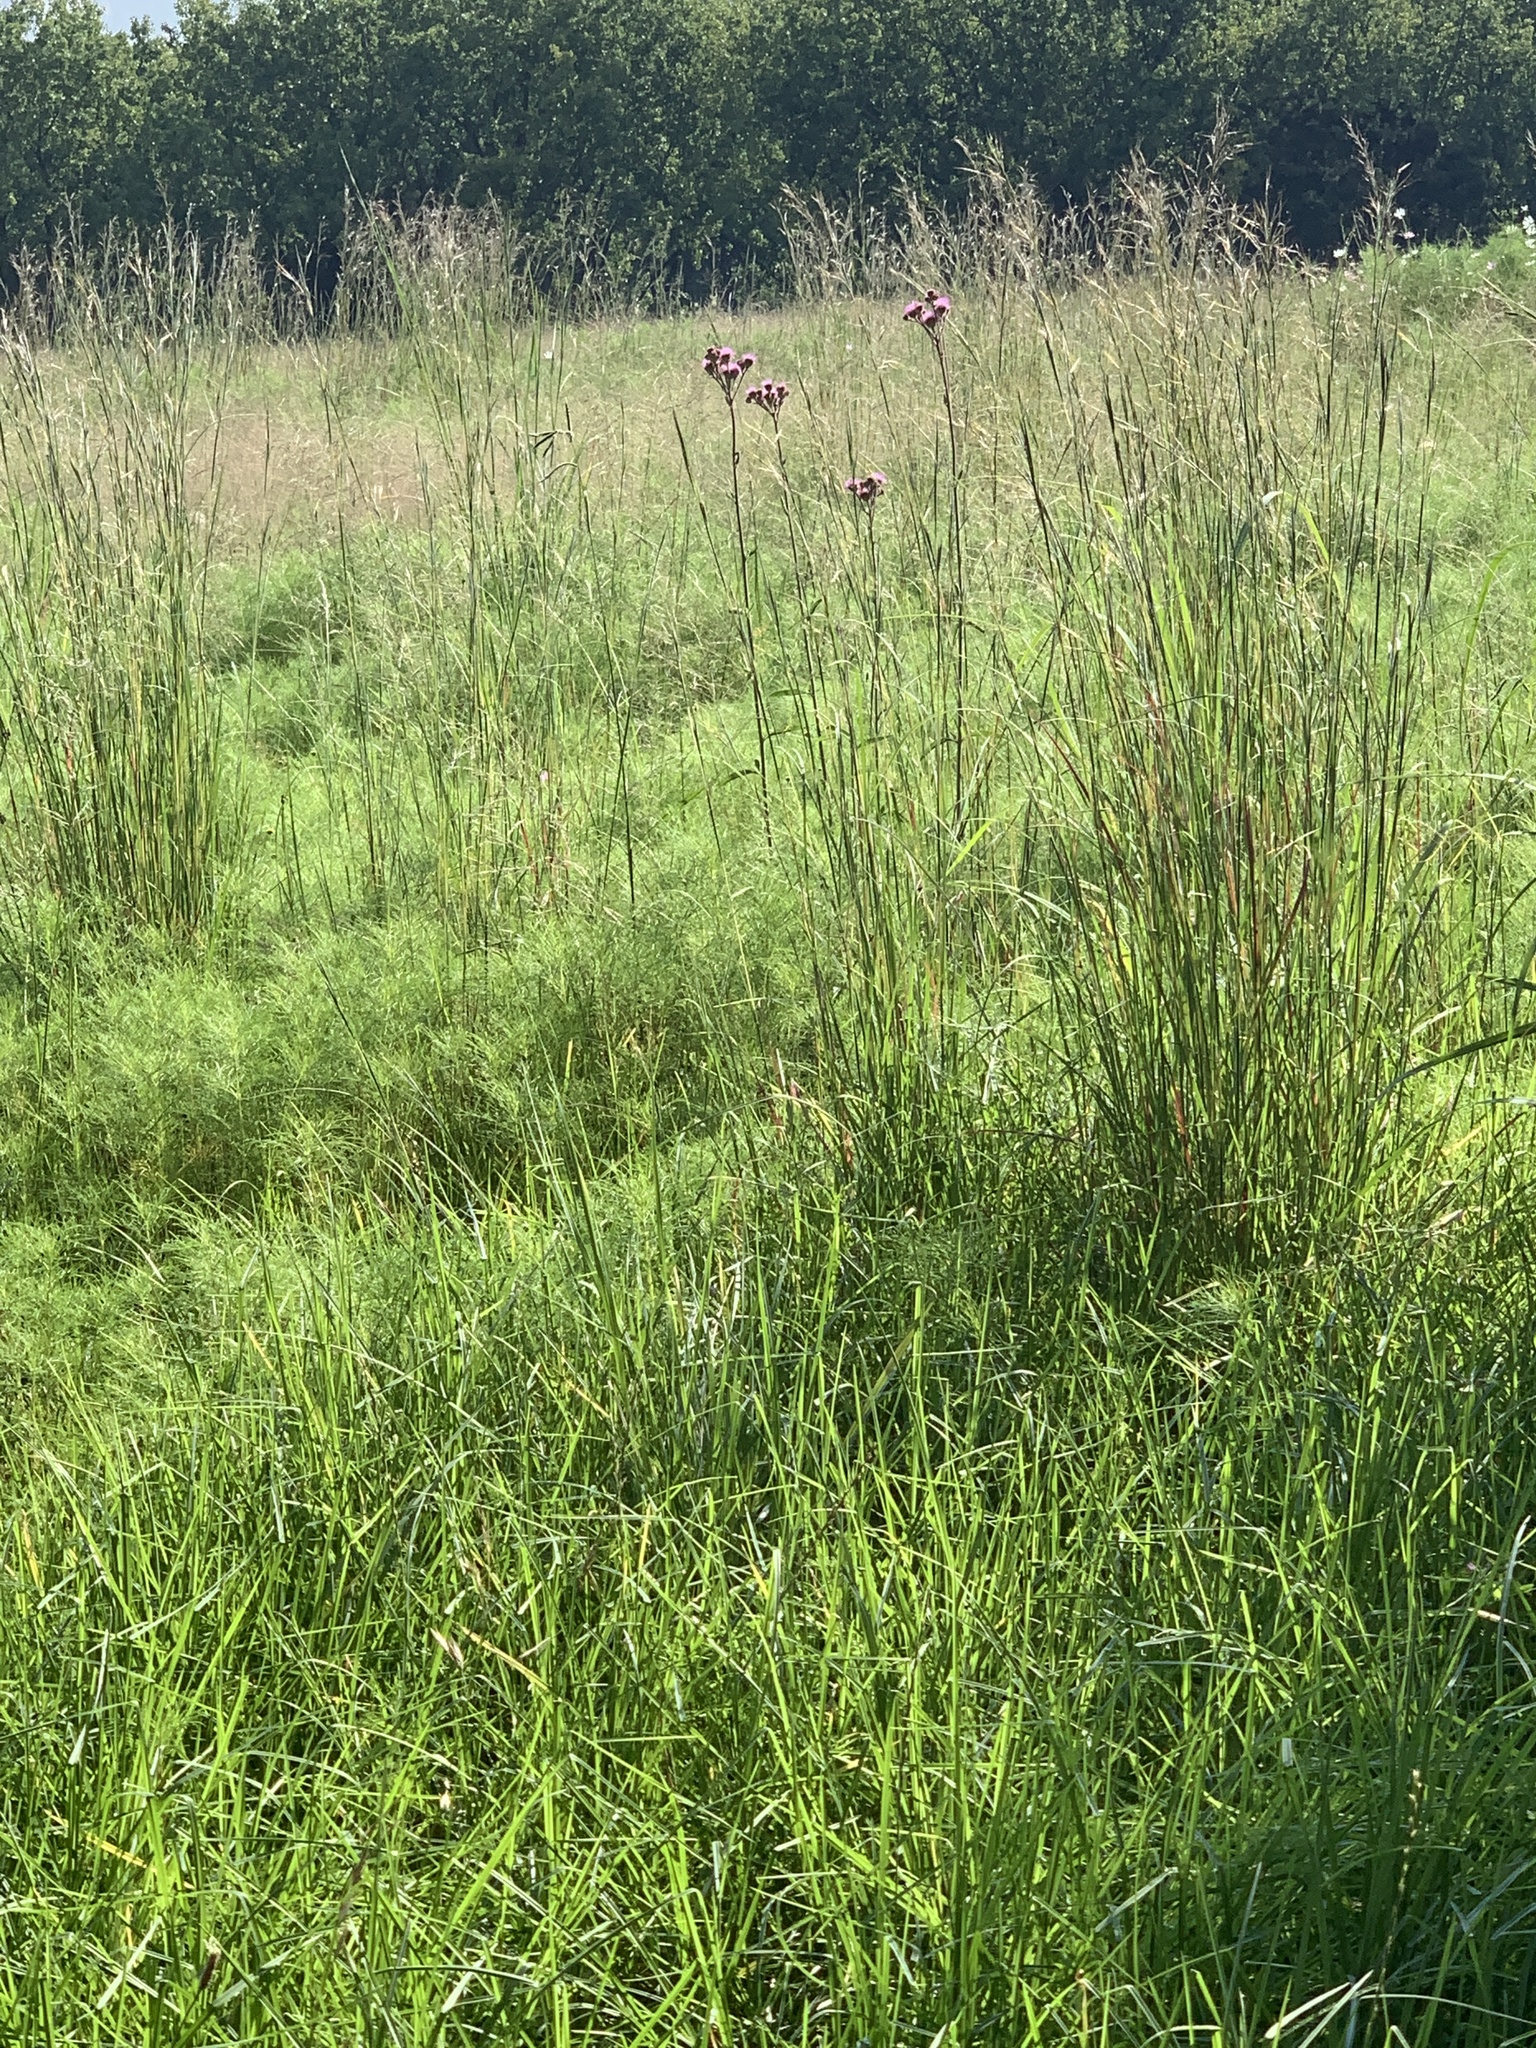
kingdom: Plantae
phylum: Tracheophyta
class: Magnoliopsida
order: Asterales
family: Asteraceae
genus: Campuloclinium
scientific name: Campuloclinium macrocephalum
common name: Pompomweed
